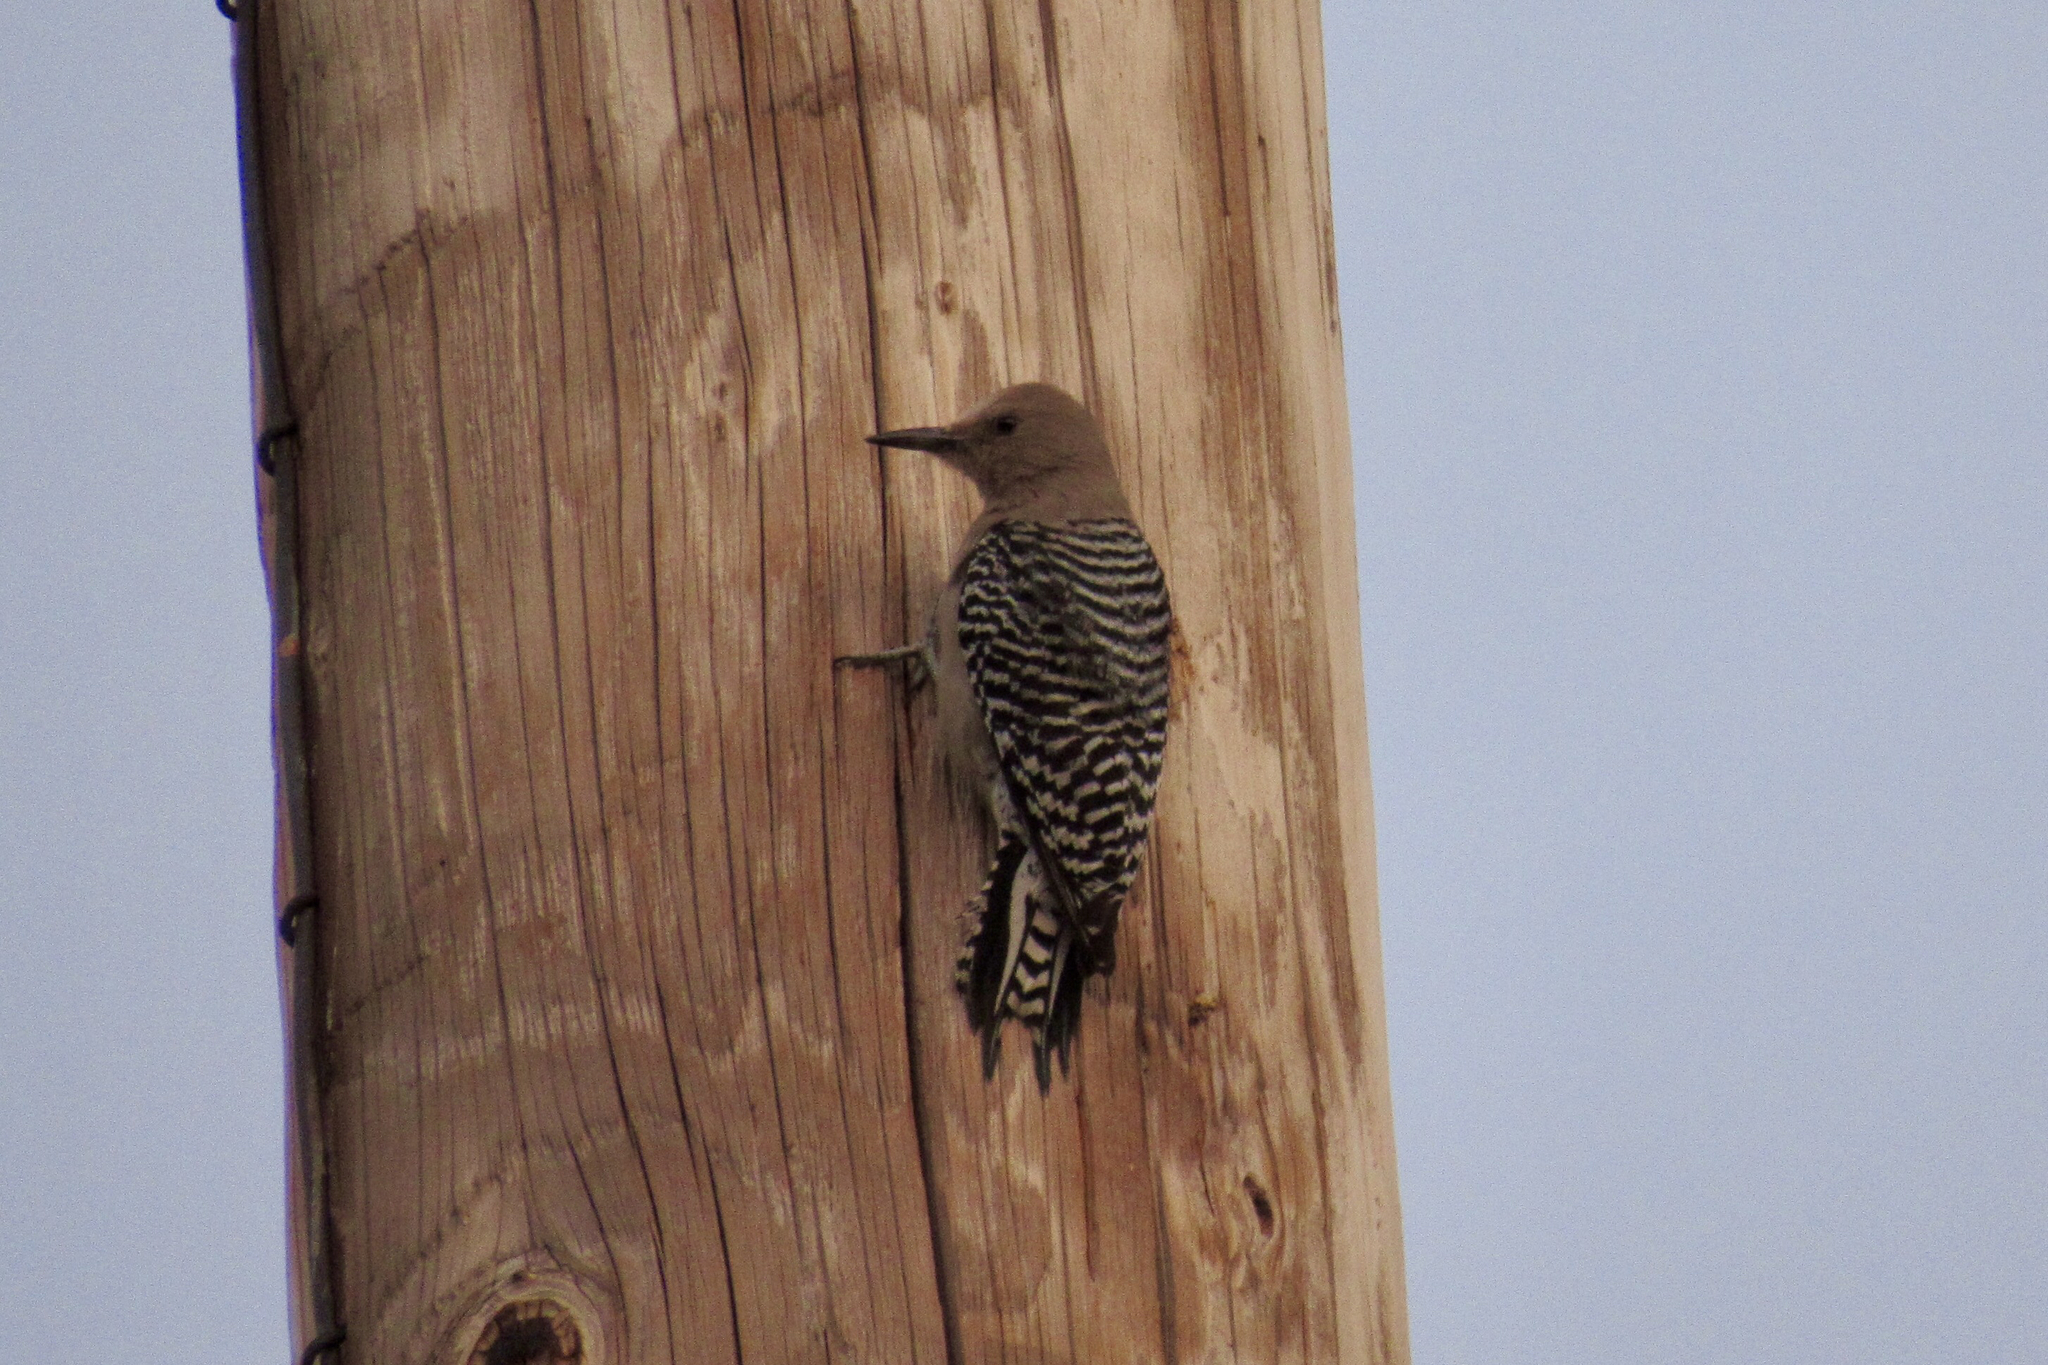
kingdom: Animalia
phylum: Chordata
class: Aves
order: Piciformes
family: Picidae
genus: Melanerpes
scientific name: Melanerpes uropygialis
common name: Gila woodpecker
